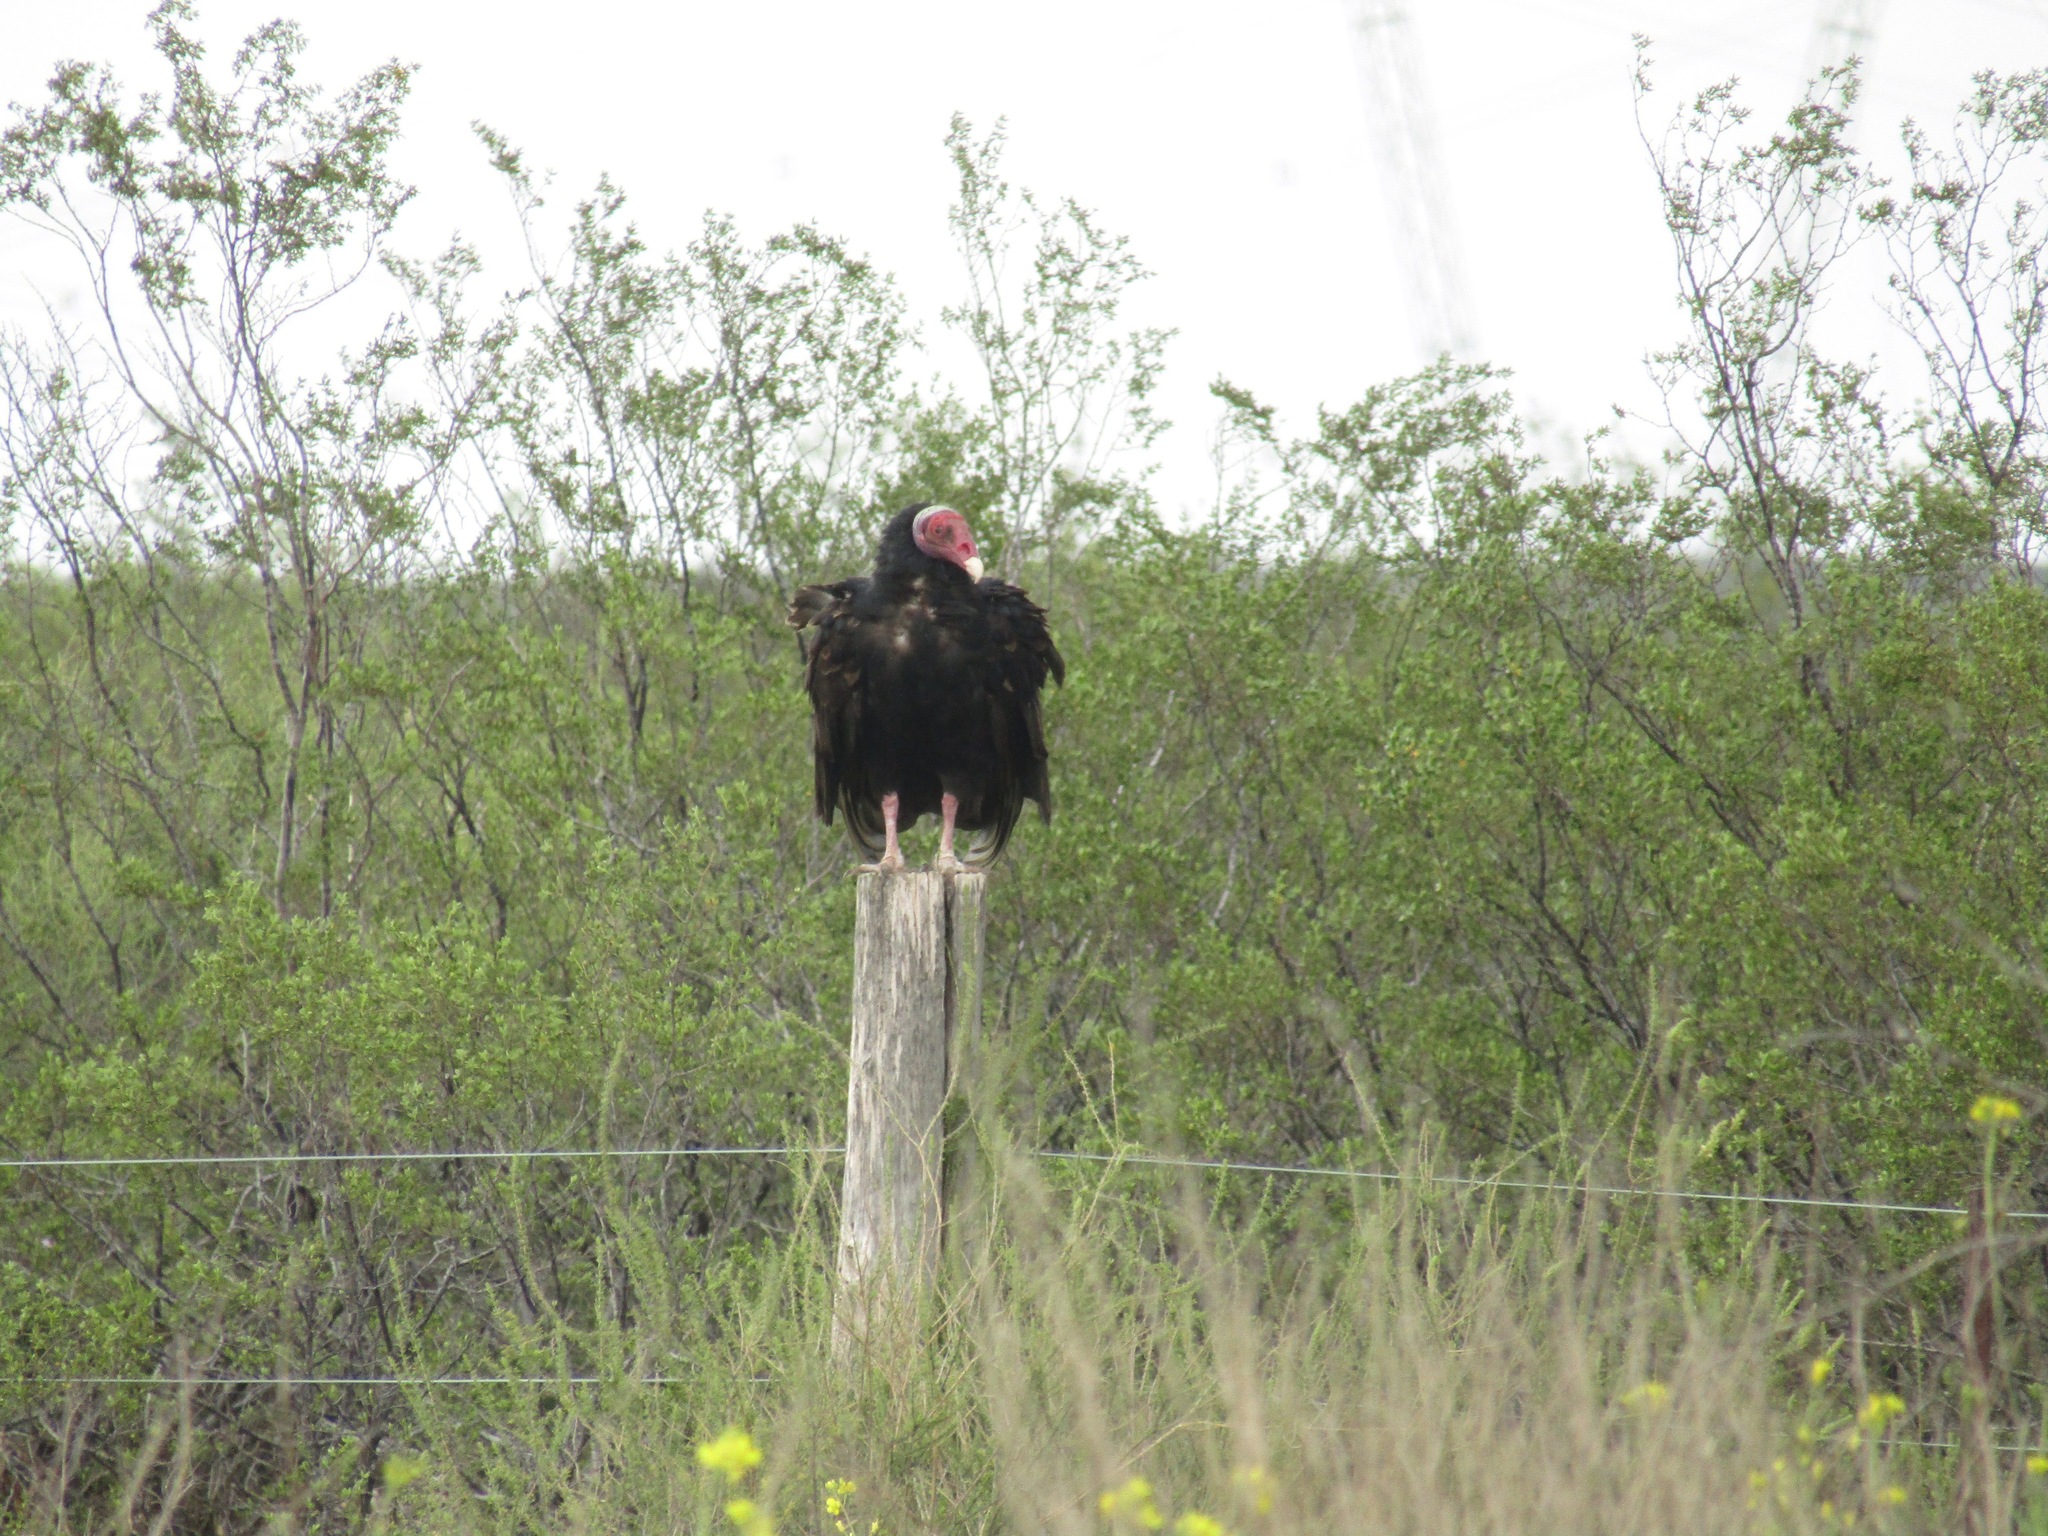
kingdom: Animalia
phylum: Chordata
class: Aves
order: Accipitriformes
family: Cathartidae
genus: Cathartes
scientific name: Cathartes aura
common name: Turkey vulture
